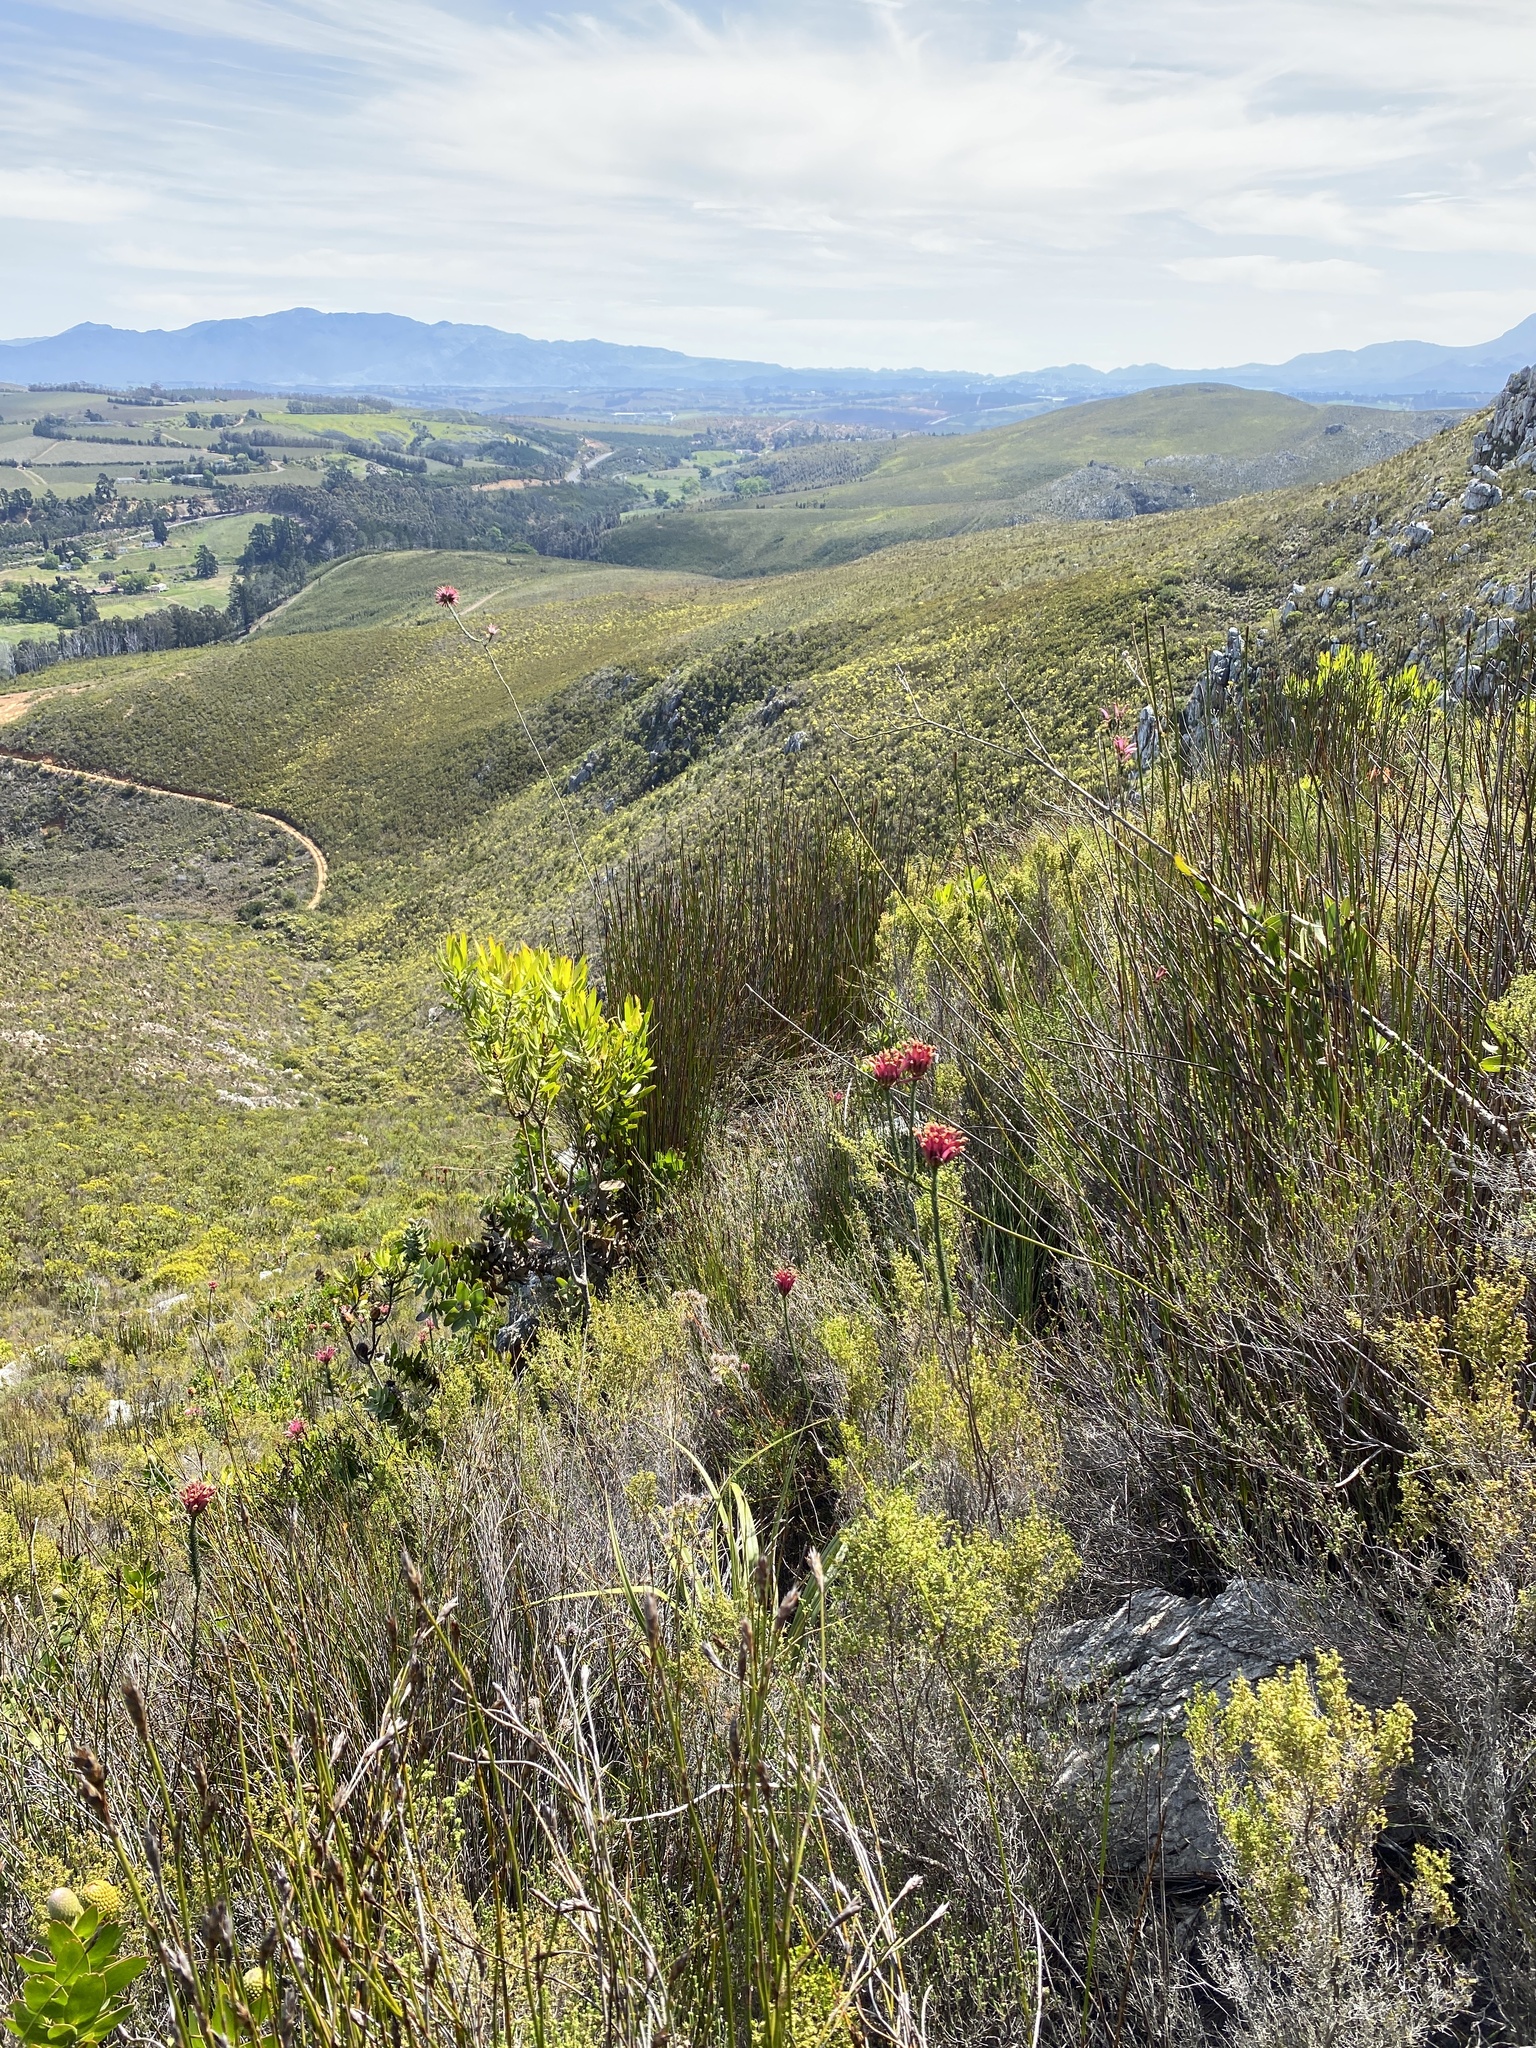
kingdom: Plantae
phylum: Tracheophyta
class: Magnoliopsida
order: Ericales
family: Ericaceae
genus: Erica
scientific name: Erica fascicularis
